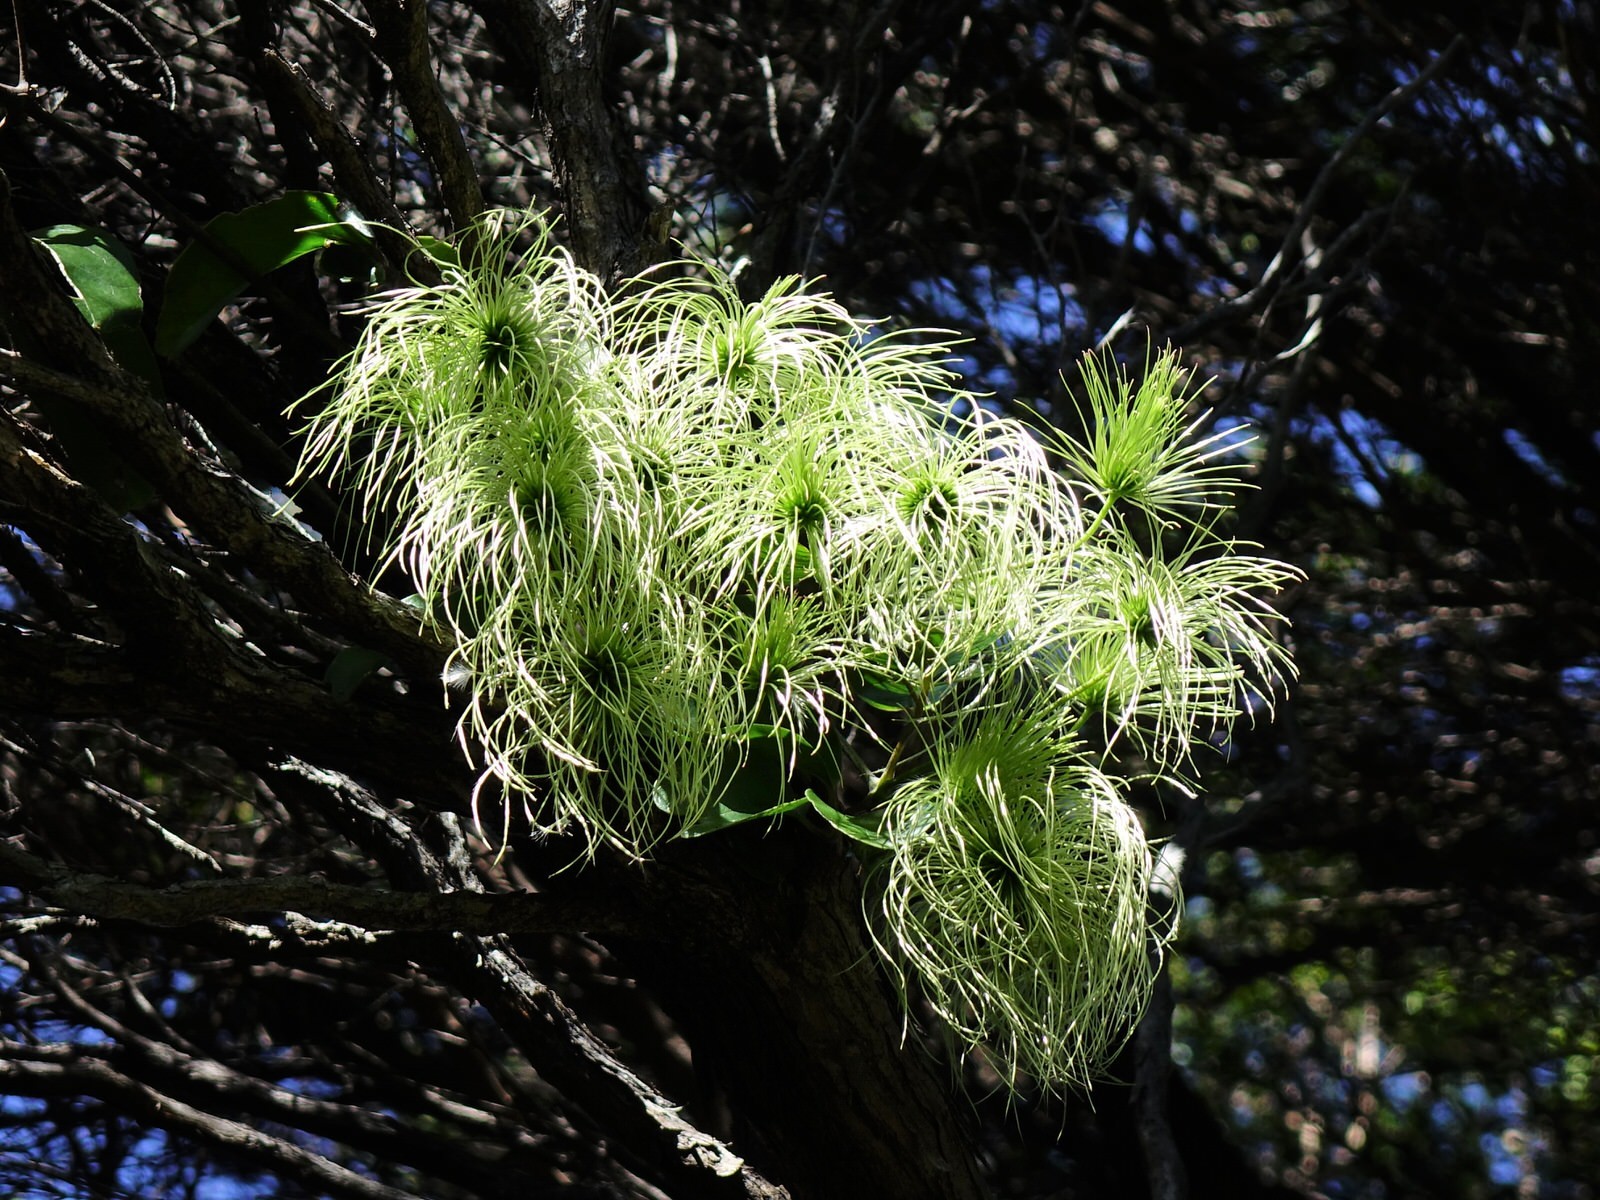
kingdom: Plantae
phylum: Tracheophyta
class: Magnoliopsida
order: Ranunculales
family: Ranunculaceae
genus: Clematis
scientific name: Clematis paniculata
